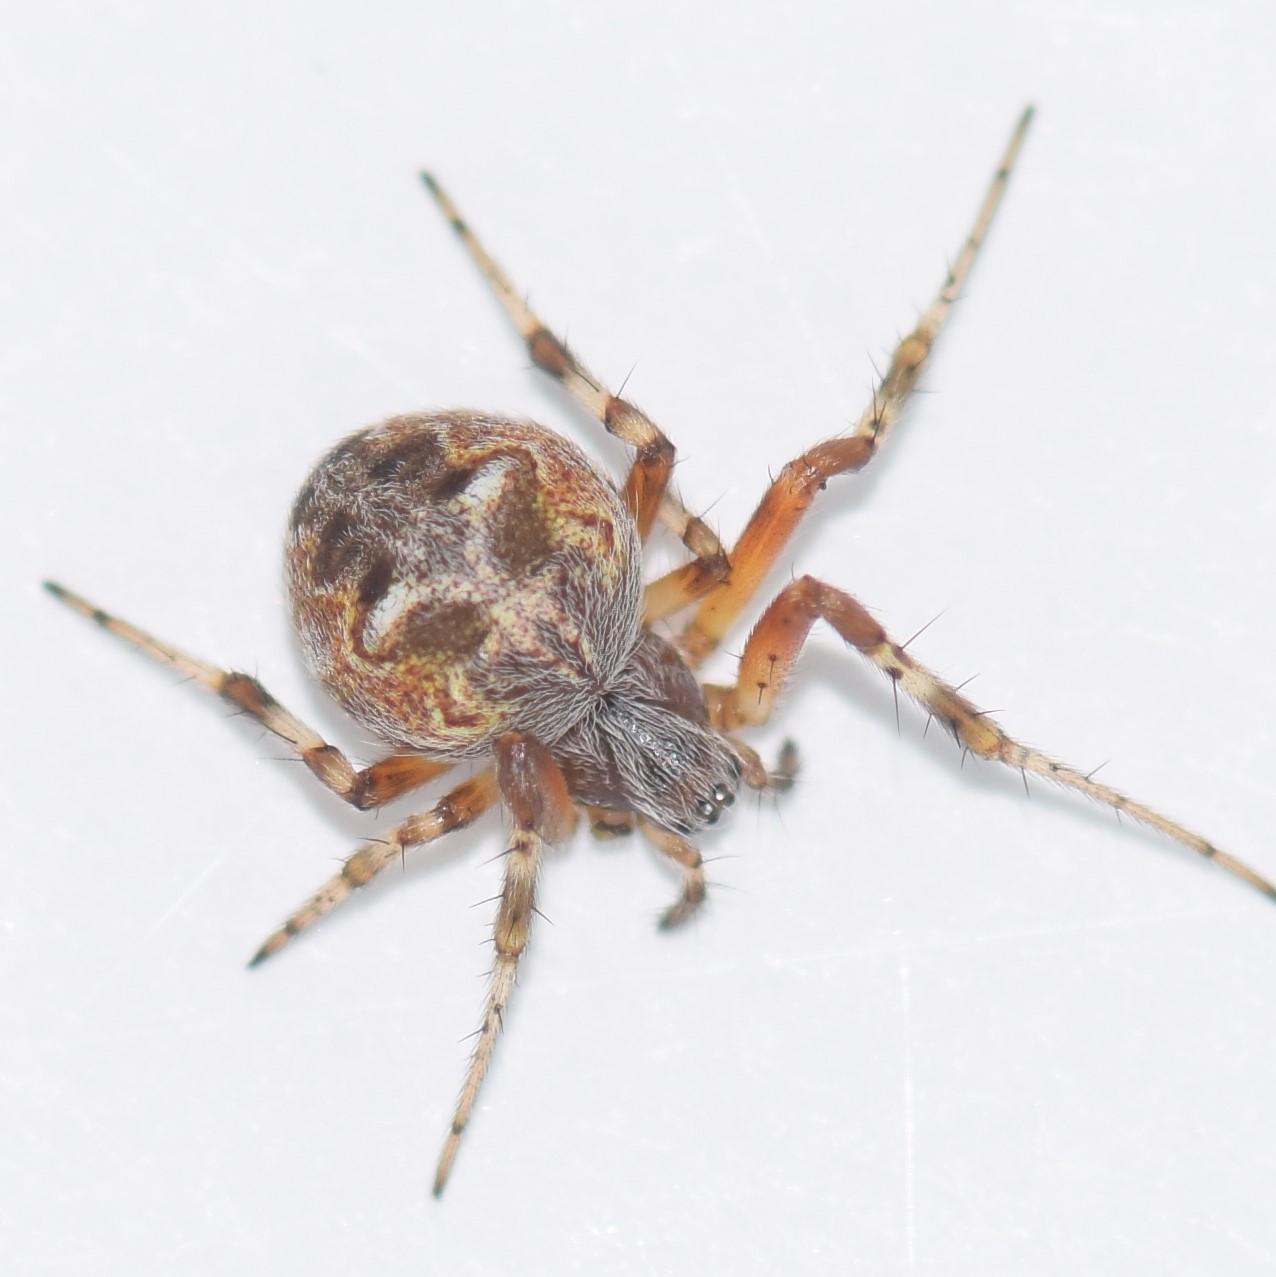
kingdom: Animalia
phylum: Arthropoda
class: Arachnida
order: Araneae
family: Araneidae
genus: Metepeira
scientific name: Metepeira labyrinthea
